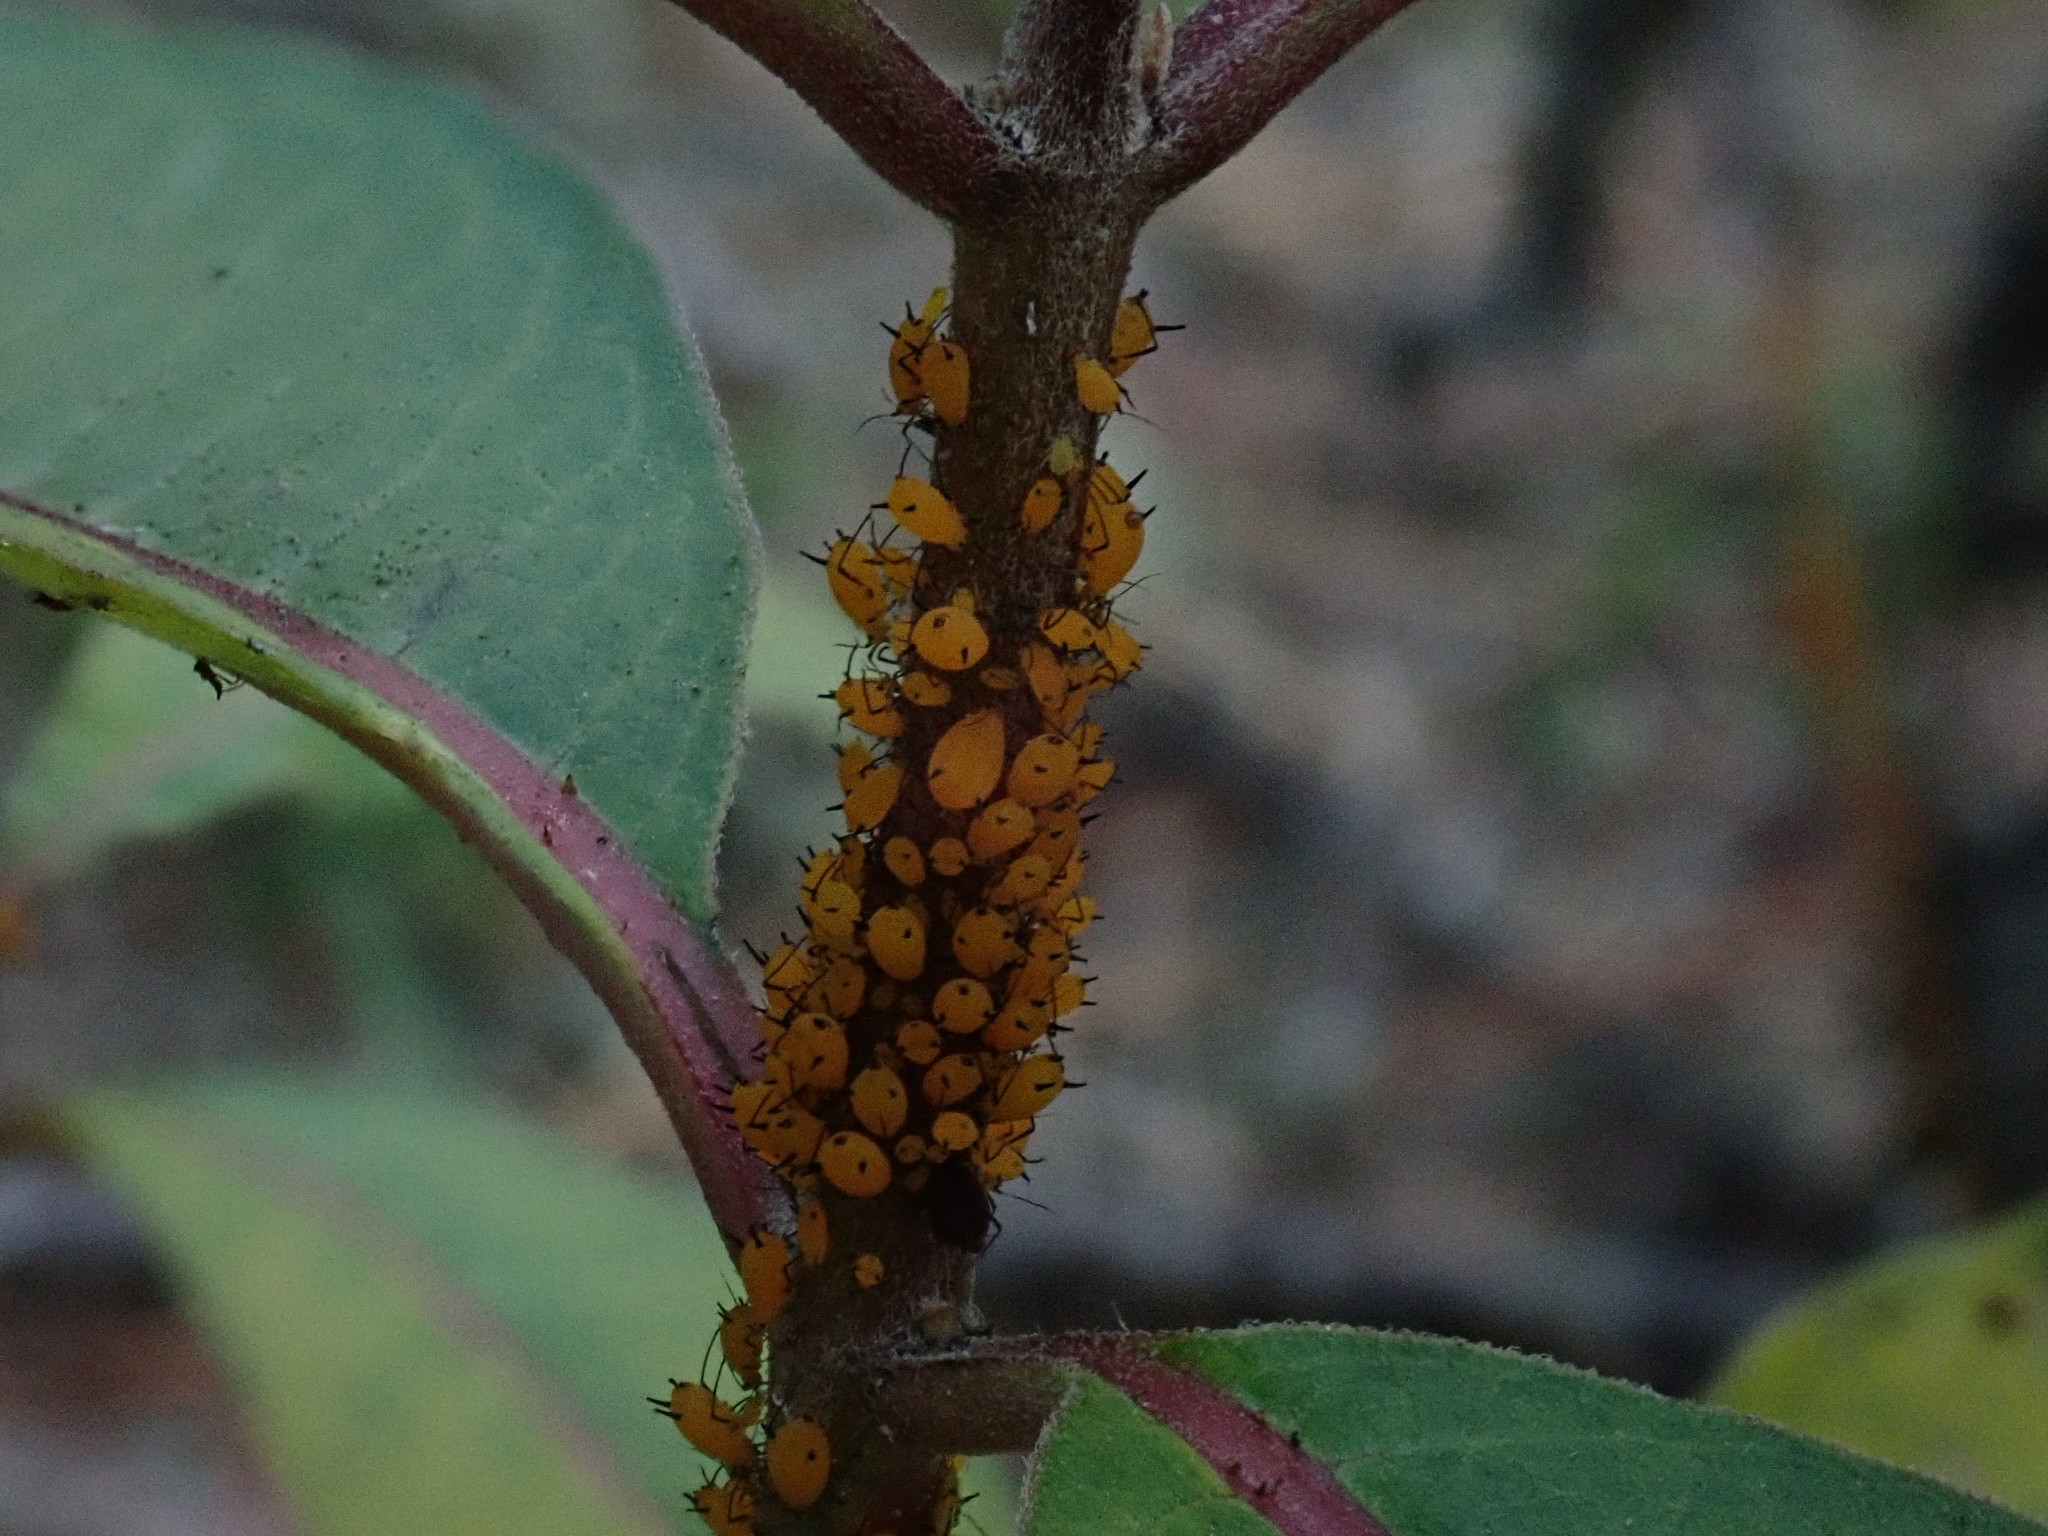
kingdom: Animalia
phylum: Arthropoda
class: Insecta
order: Hemiptera
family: Aphididae
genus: Aphis
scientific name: Aphis nerii
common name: Oleander aphid
